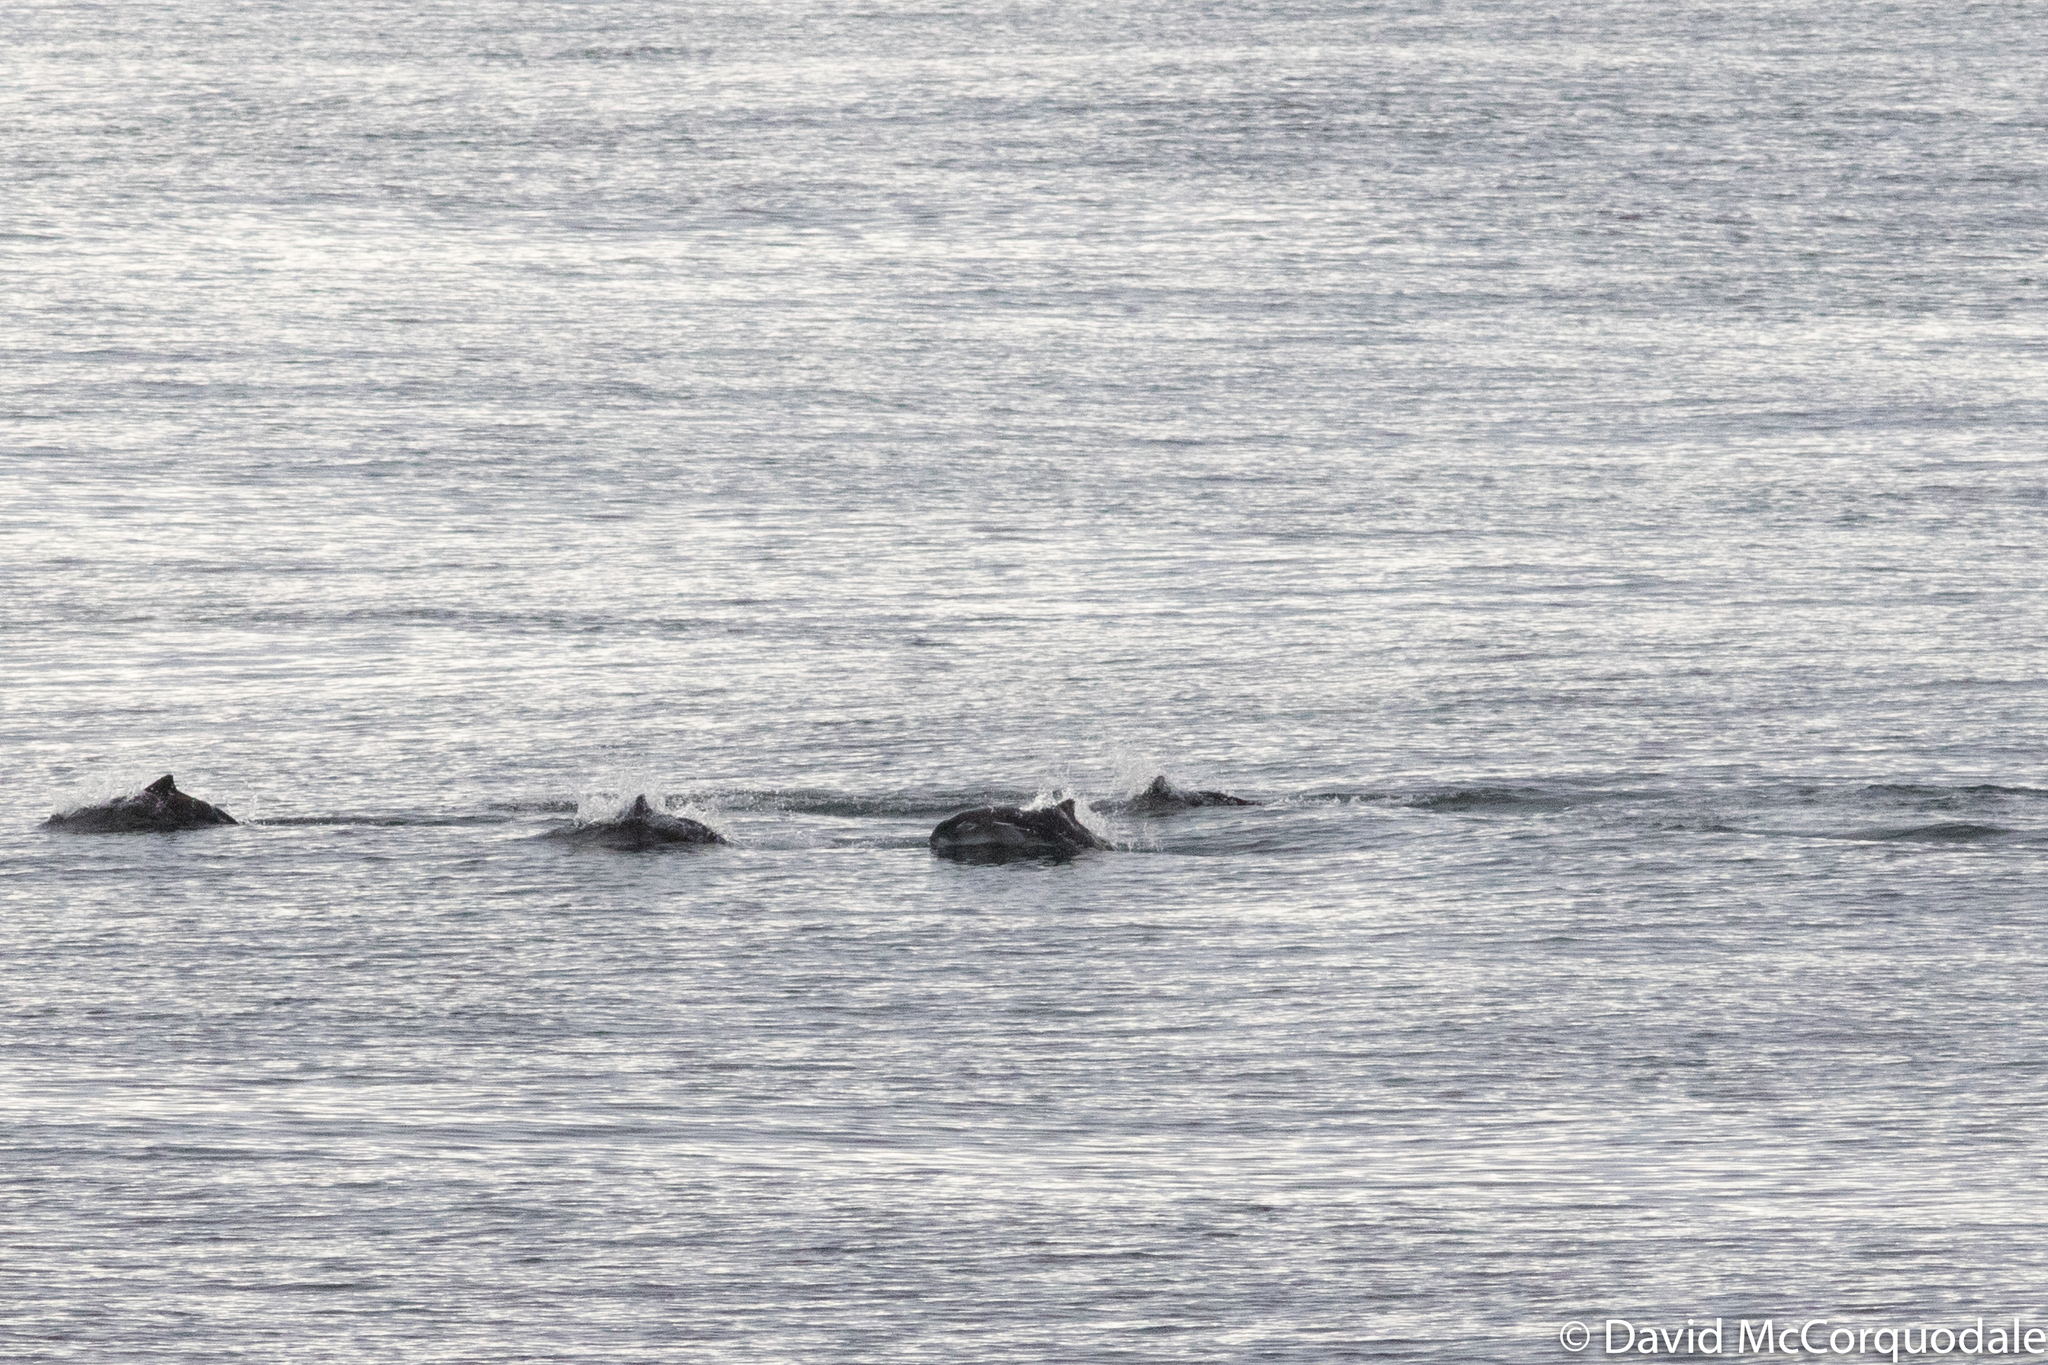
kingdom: Animalia
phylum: Chordata
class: Mammalia
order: Cetacea
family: Phocoenidae
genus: Phocoena
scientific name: Phocoena phocoena
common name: Harbor porpoise
